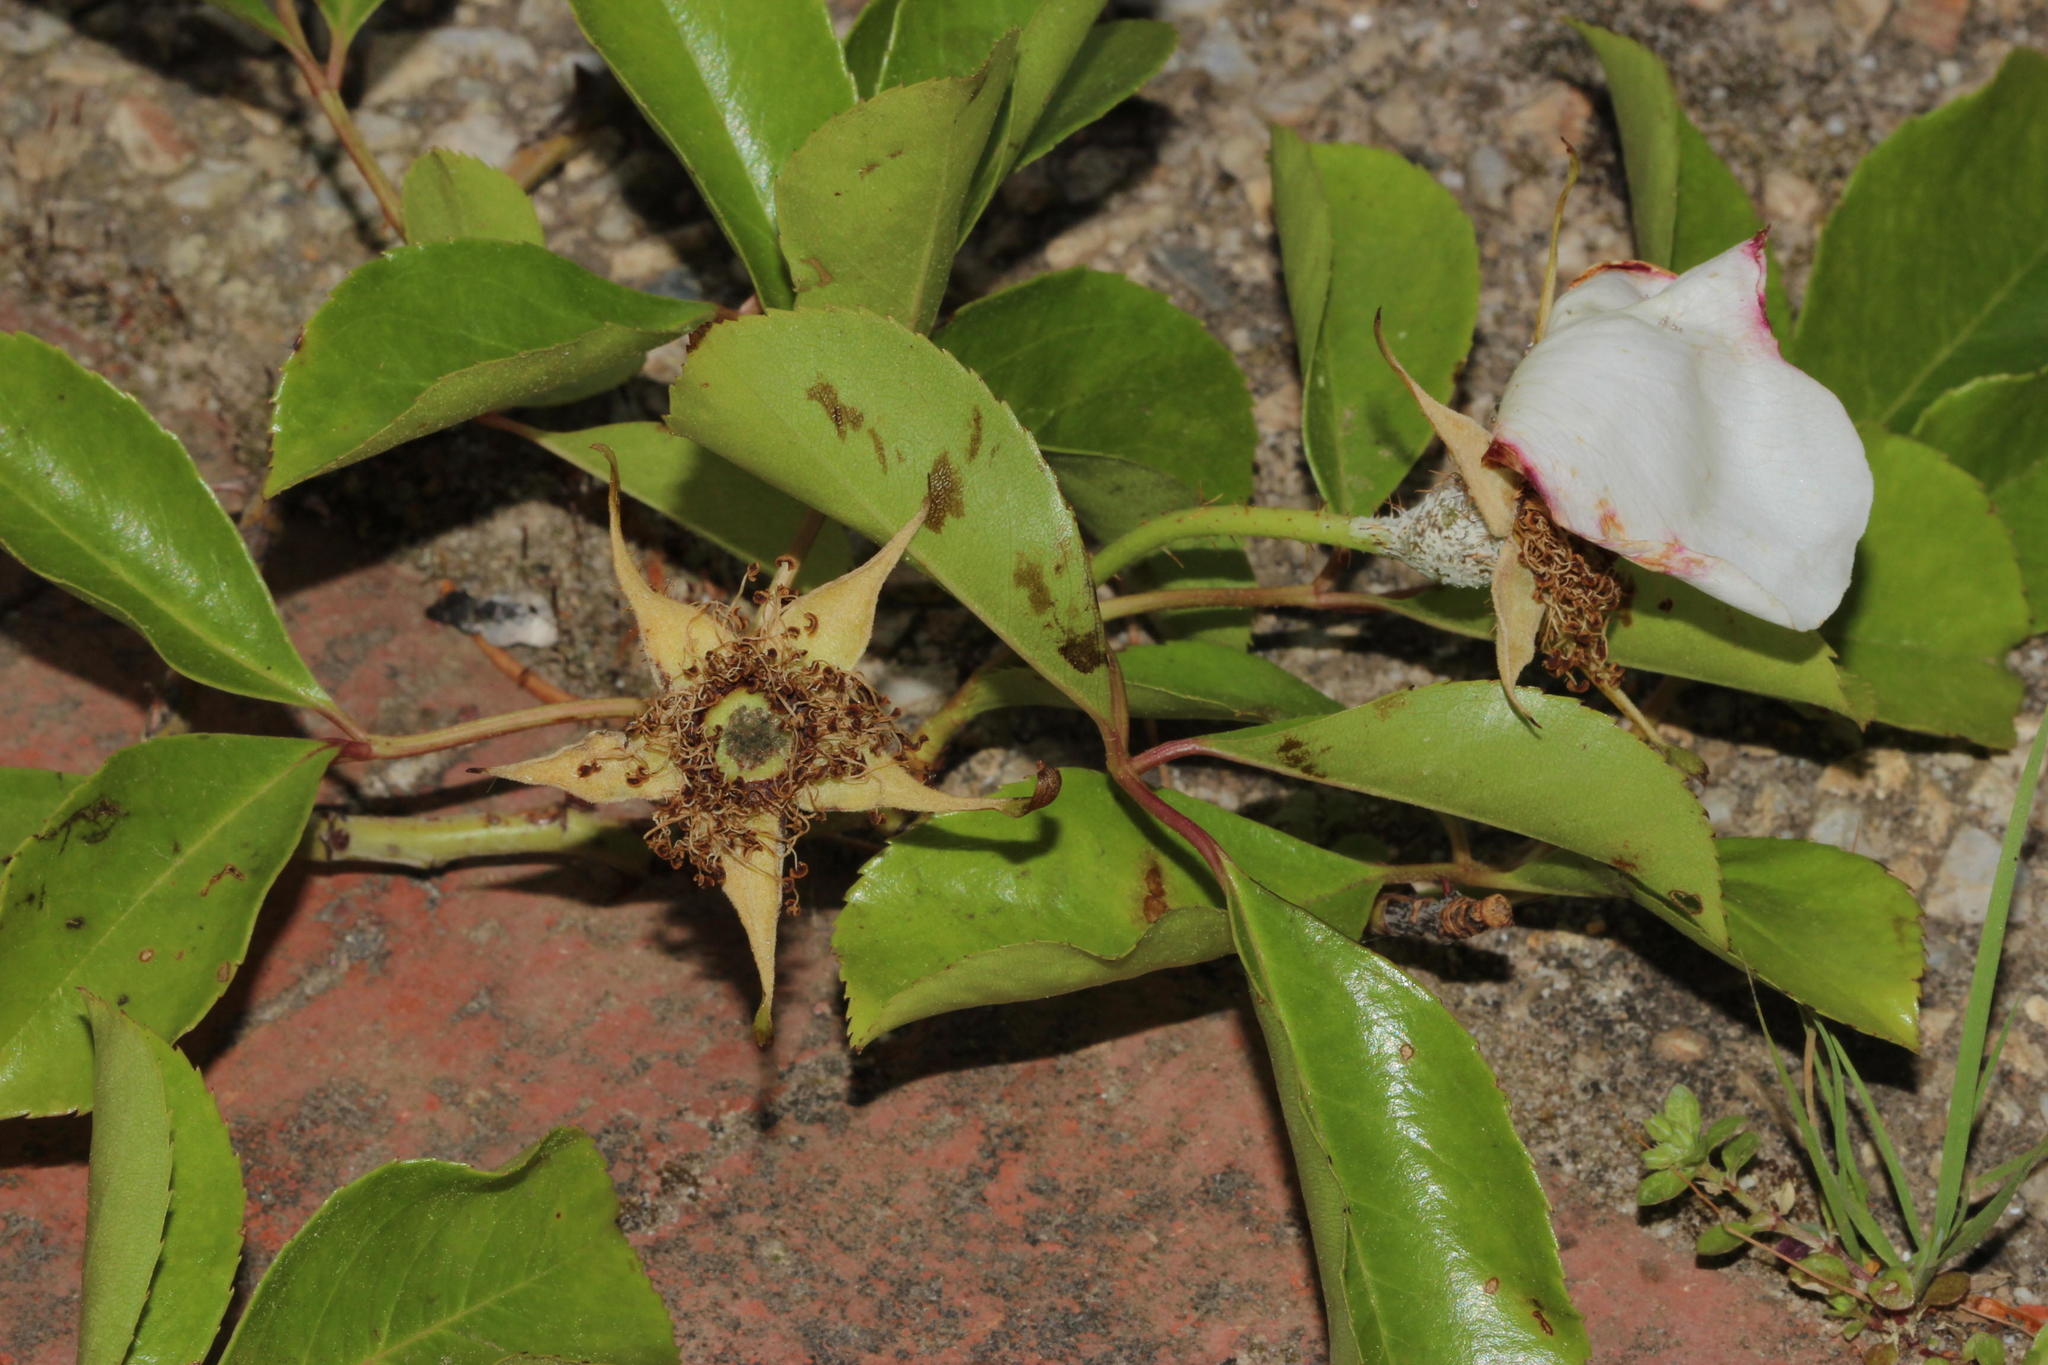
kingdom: Plantae
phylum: Tracheophyta
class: Magnoliopsida
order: Rosales
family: Rosaceae
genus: Rosa
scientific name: Rosa laevigata
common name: Cherokee rose
